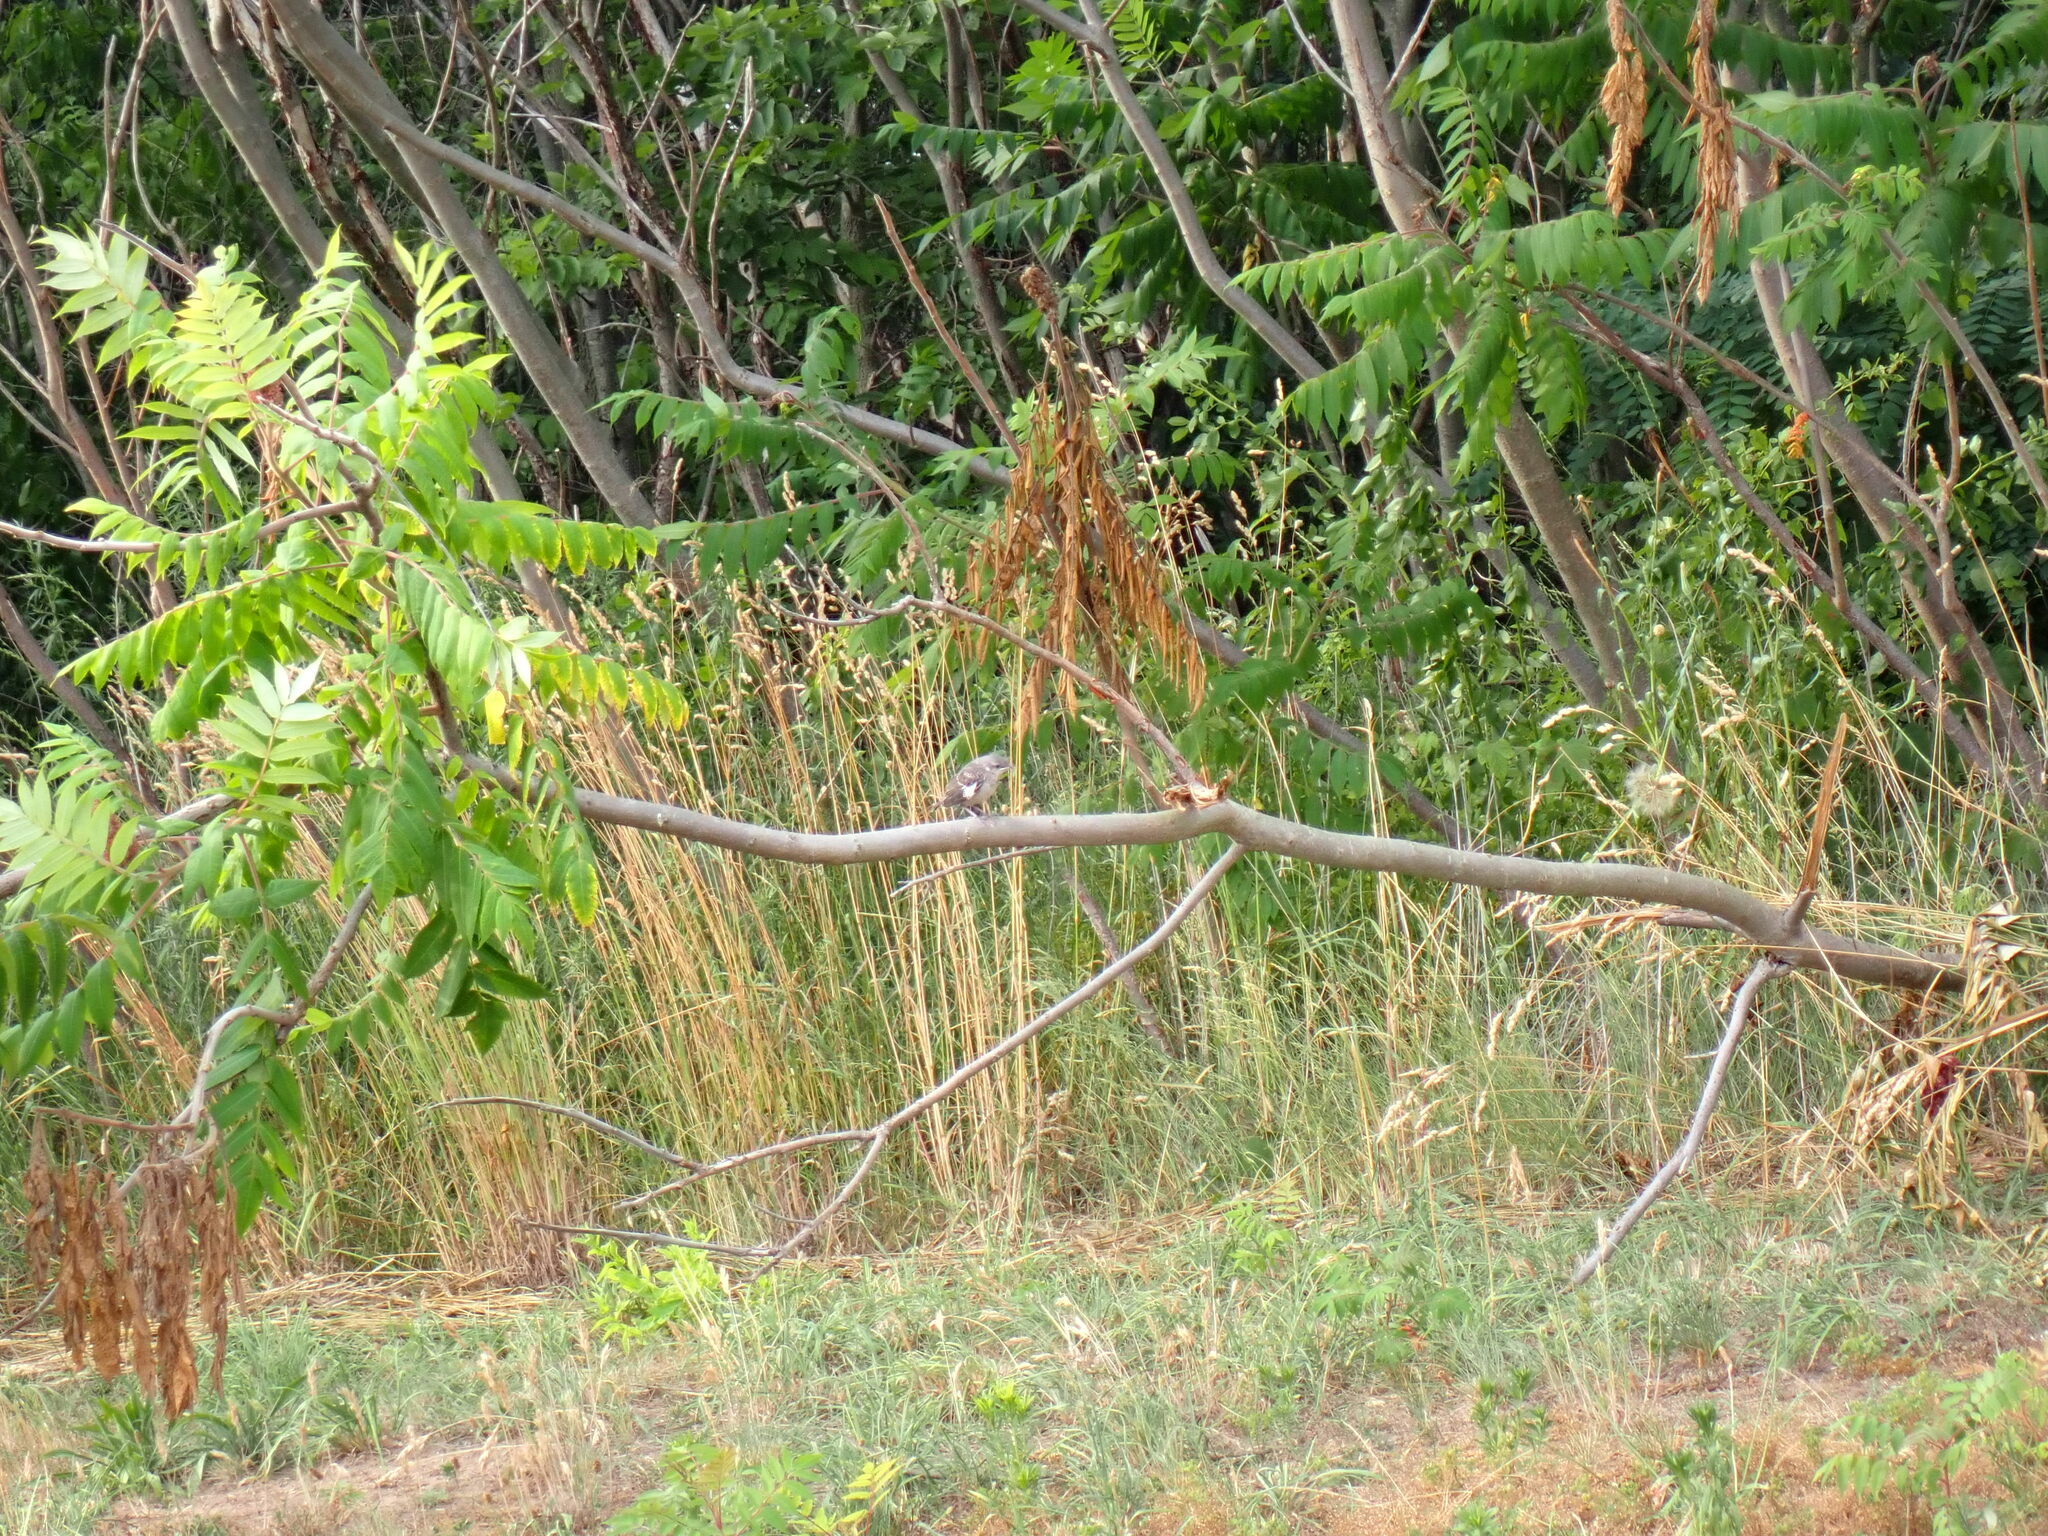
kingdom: Animalia
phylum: Chordata
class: Aves
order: Passeriformes
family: Mimidae
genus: Mimus
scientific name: Mimus polyglottos
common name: Northern mockingbird
